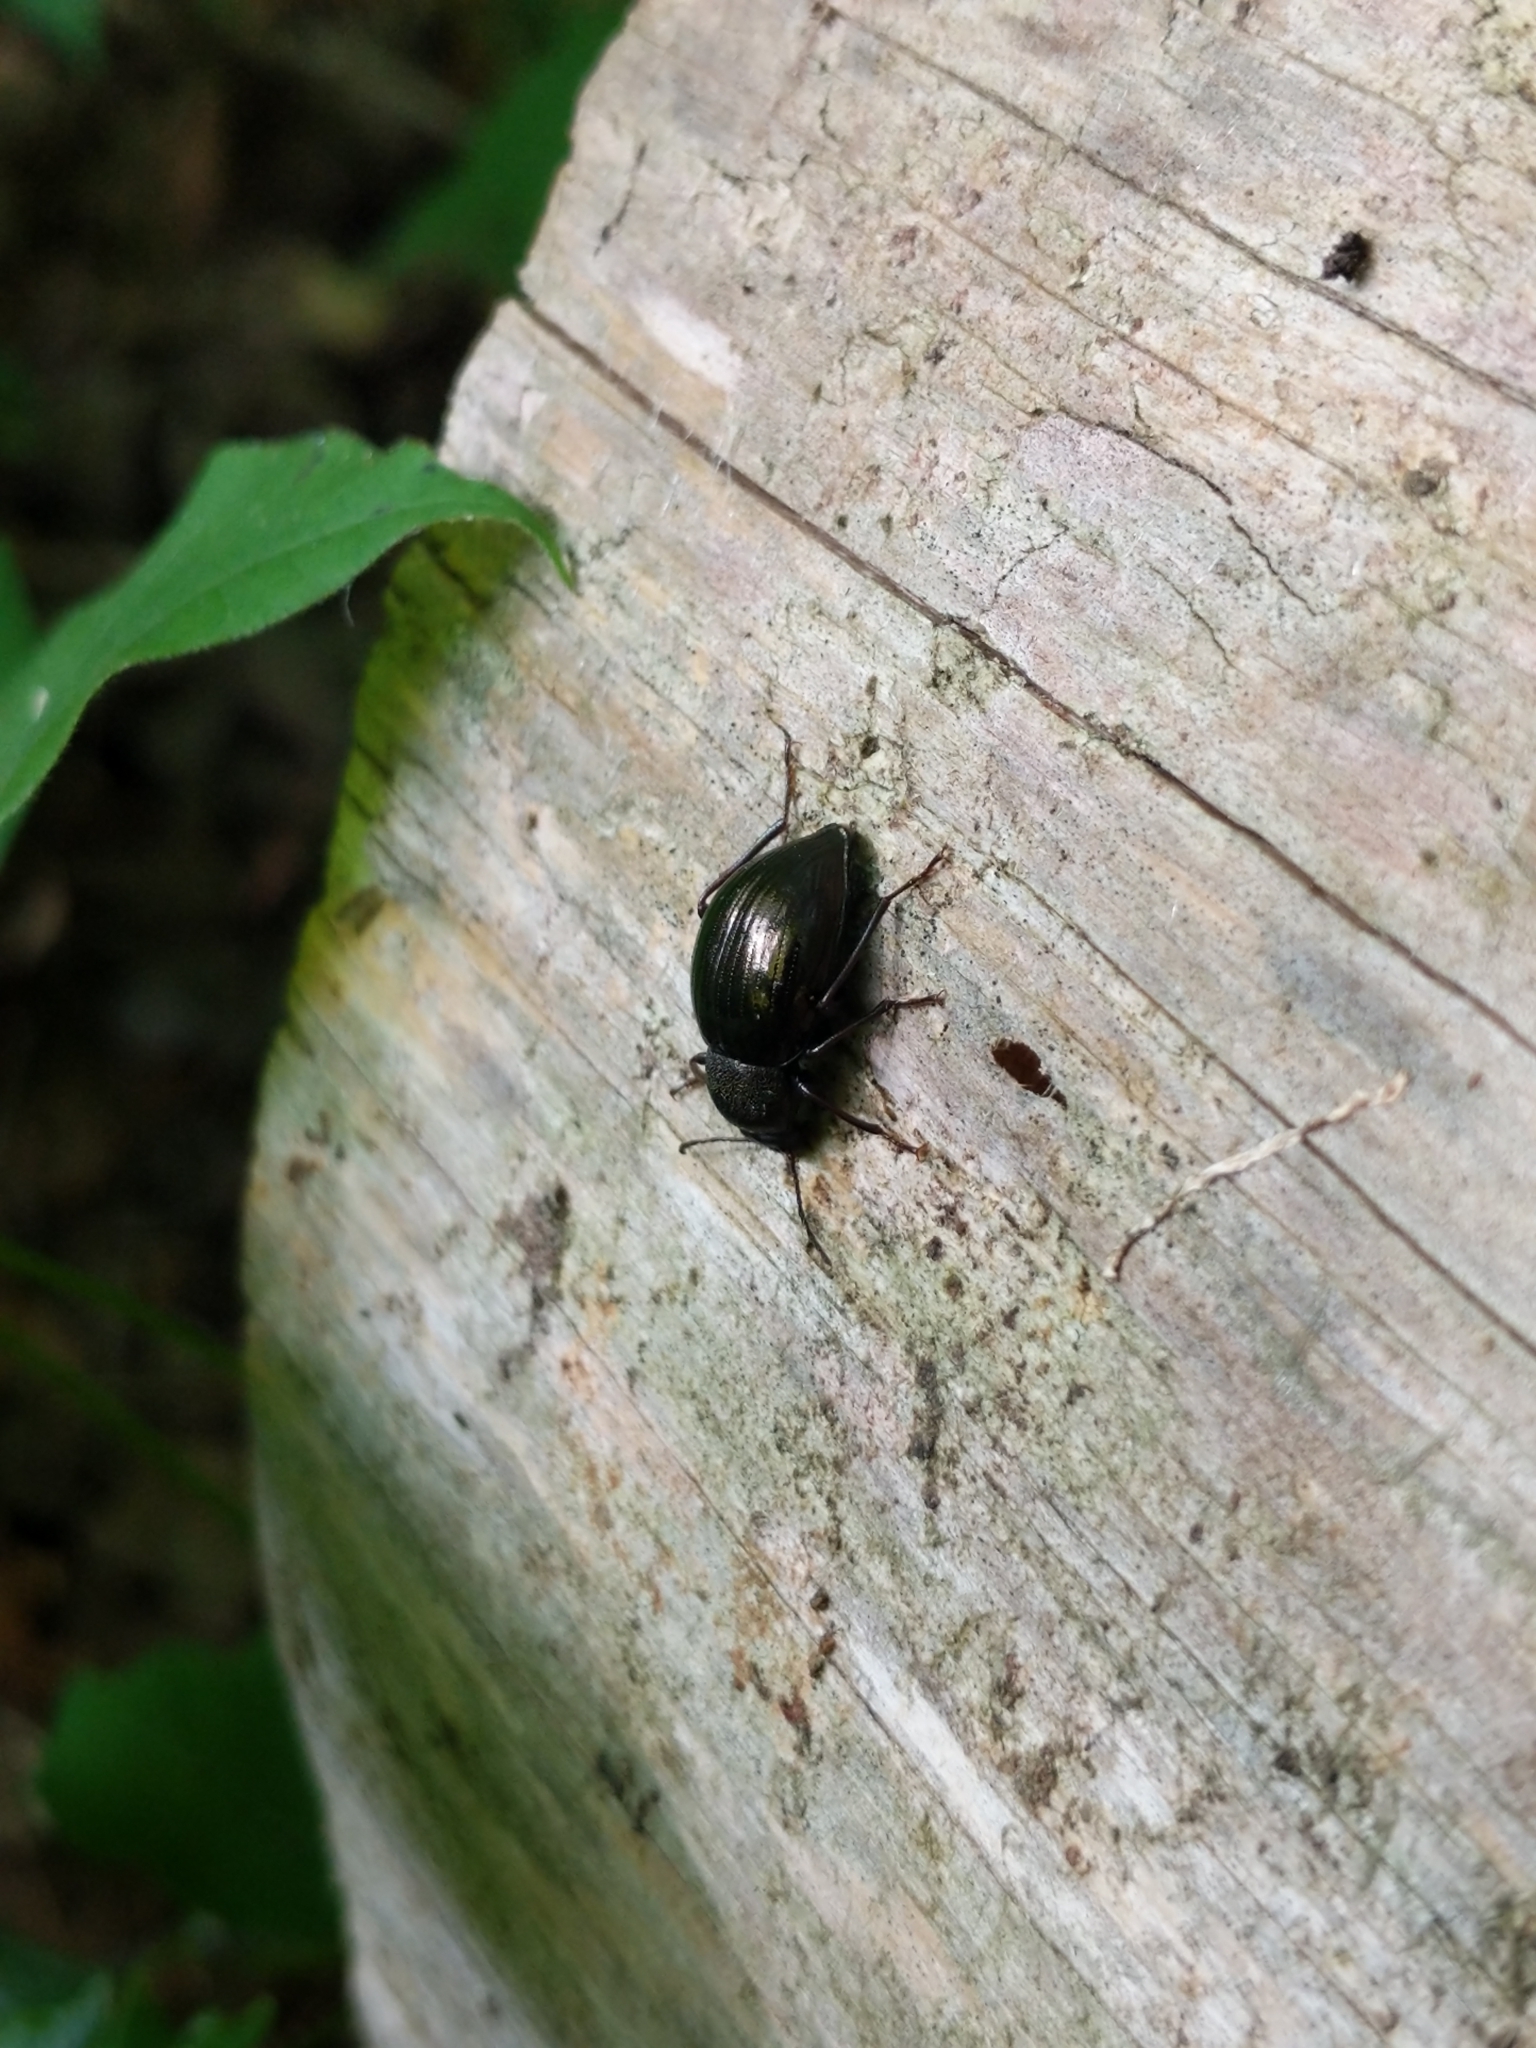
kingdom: Animalia
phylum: Arthropoda
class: Insecta
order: Coleoptera
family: Tenebrionidae
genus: Meracantha
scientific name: Meracantha contracta
